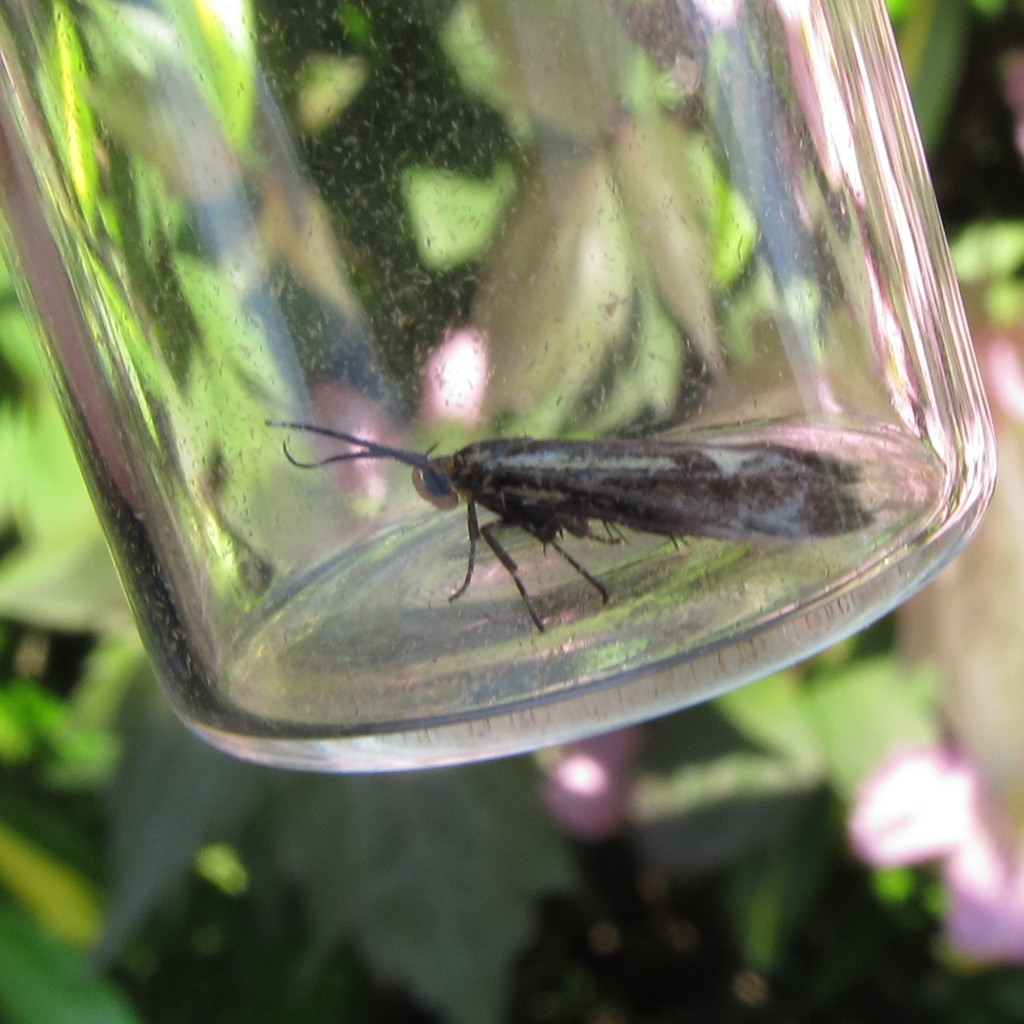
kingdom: Animalia
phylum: Arthropoda
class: Insecta
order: Lepidoptera
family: Oecophoridae
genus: Dafa
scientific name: Dafa Esperia sulphurella
